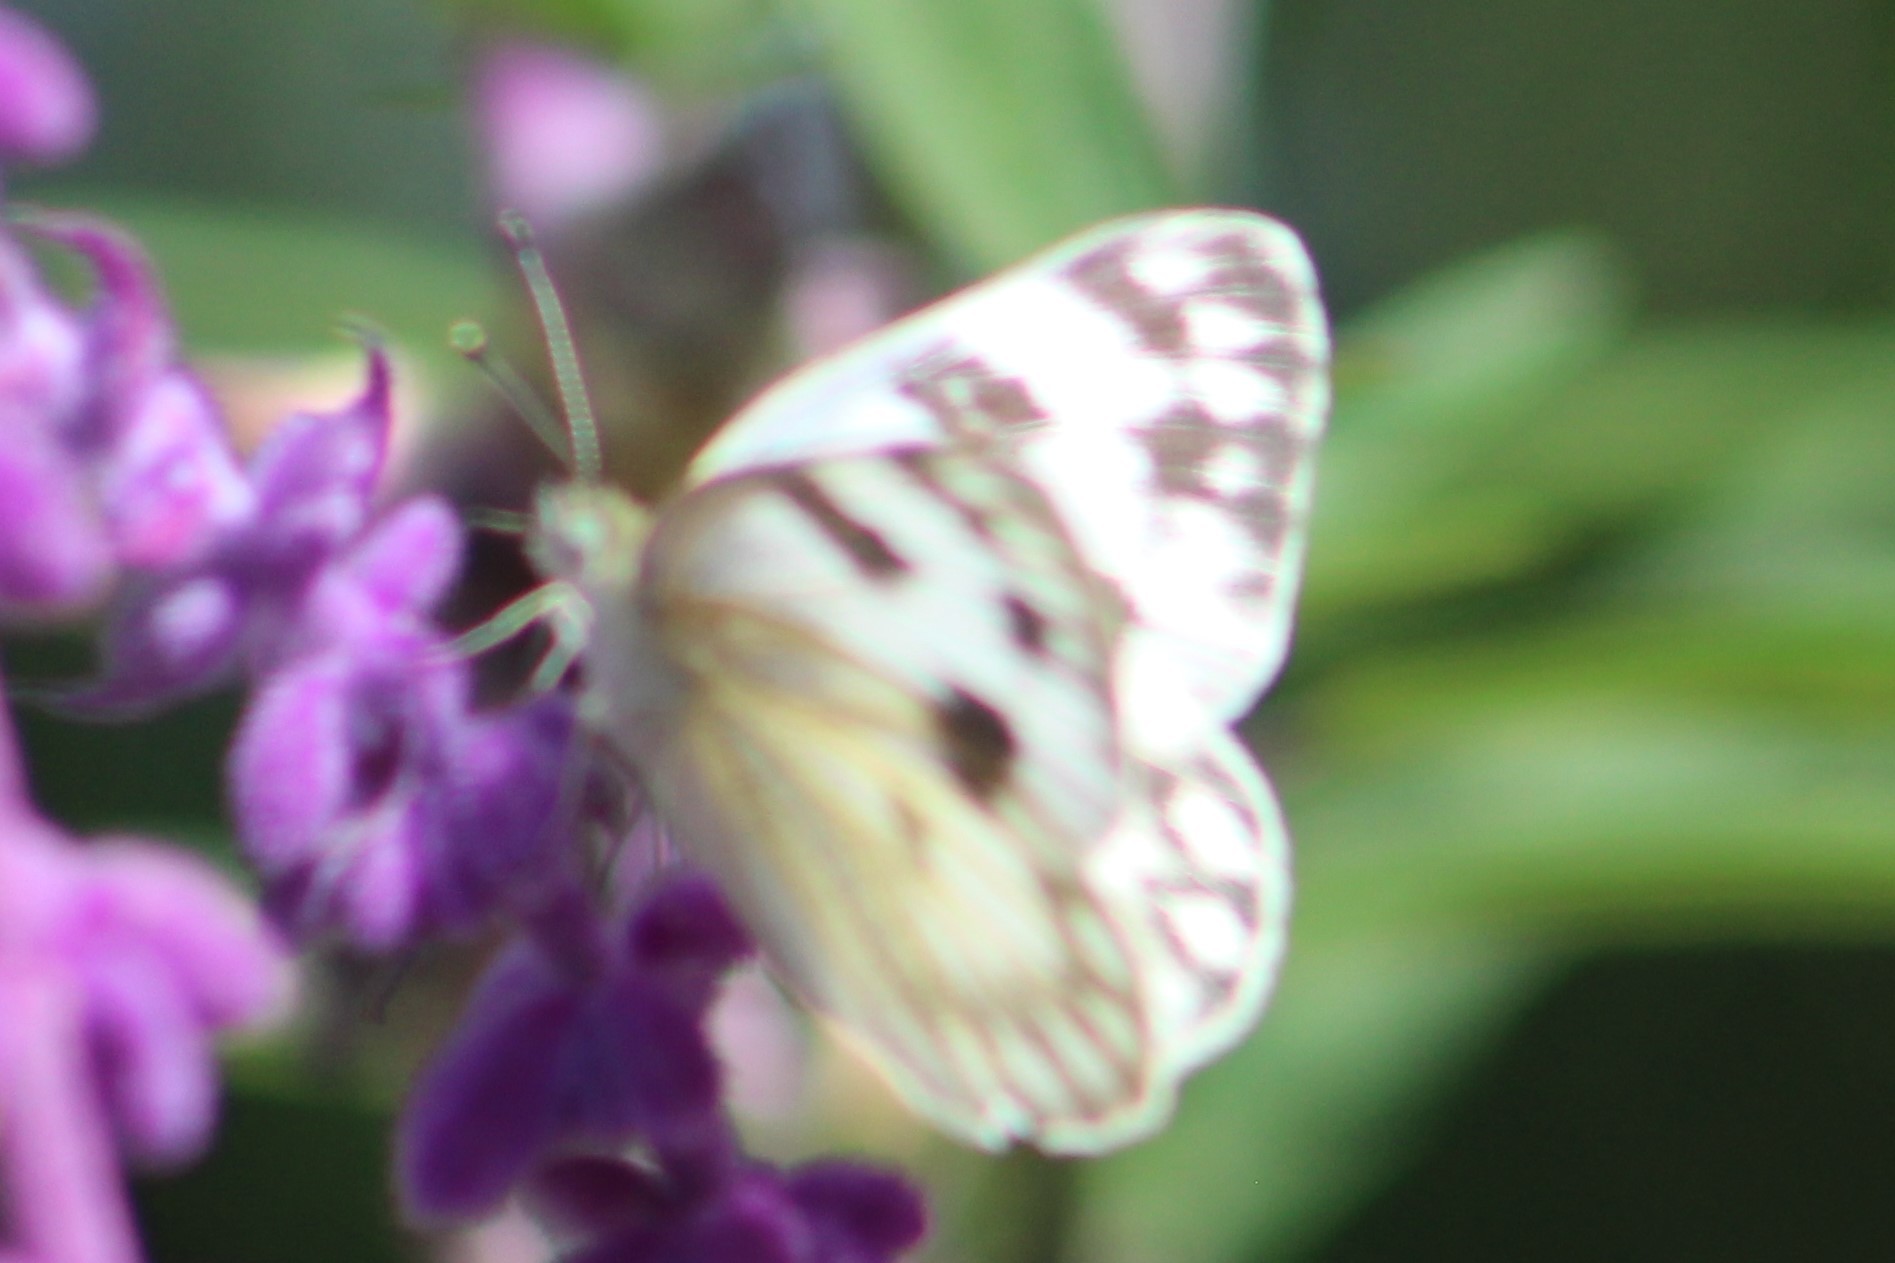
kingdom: Animalia
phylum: Arthropoda
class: Insecta
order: Lepidoptera
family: Pieridae
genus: Pontia
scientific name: Pontia protodice
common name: Checkered white
